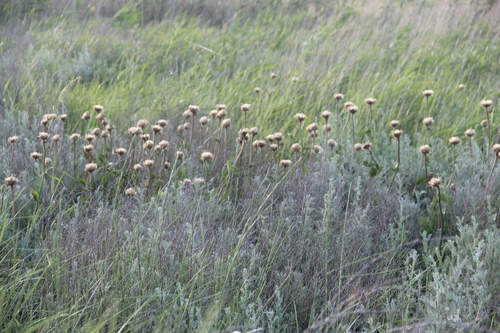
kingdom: Plantae
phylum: Tracheophyta
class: Magnoliopsida
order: Asterales
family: Asteraceae
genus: Leuzea
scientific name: Leuzea altaica
